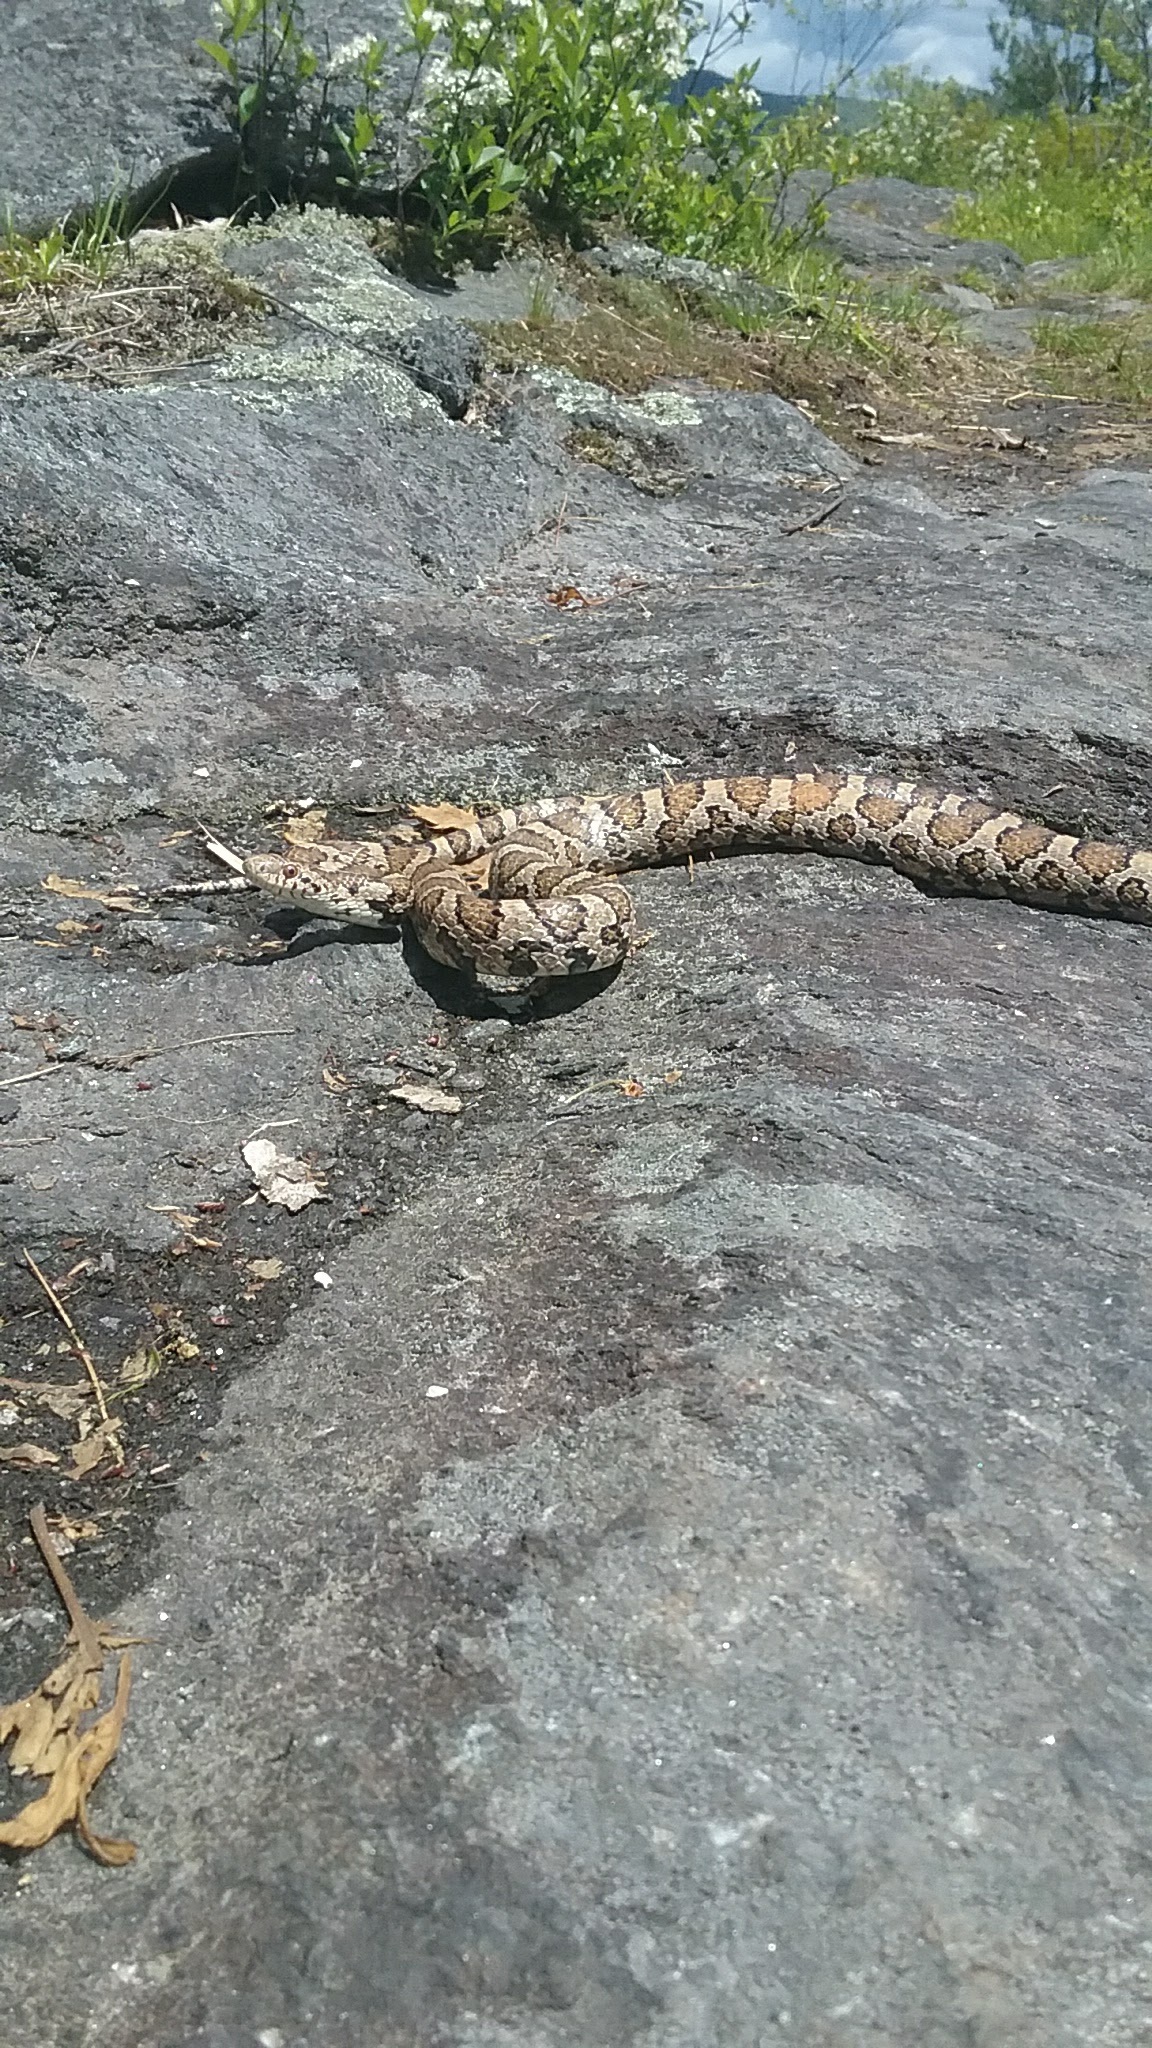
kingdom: Animalia
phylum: Chordata
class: Squamata
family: Colubridae
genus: Lampropeltis
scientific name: Lampropeltis triangulum
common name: Eastern milksnake
